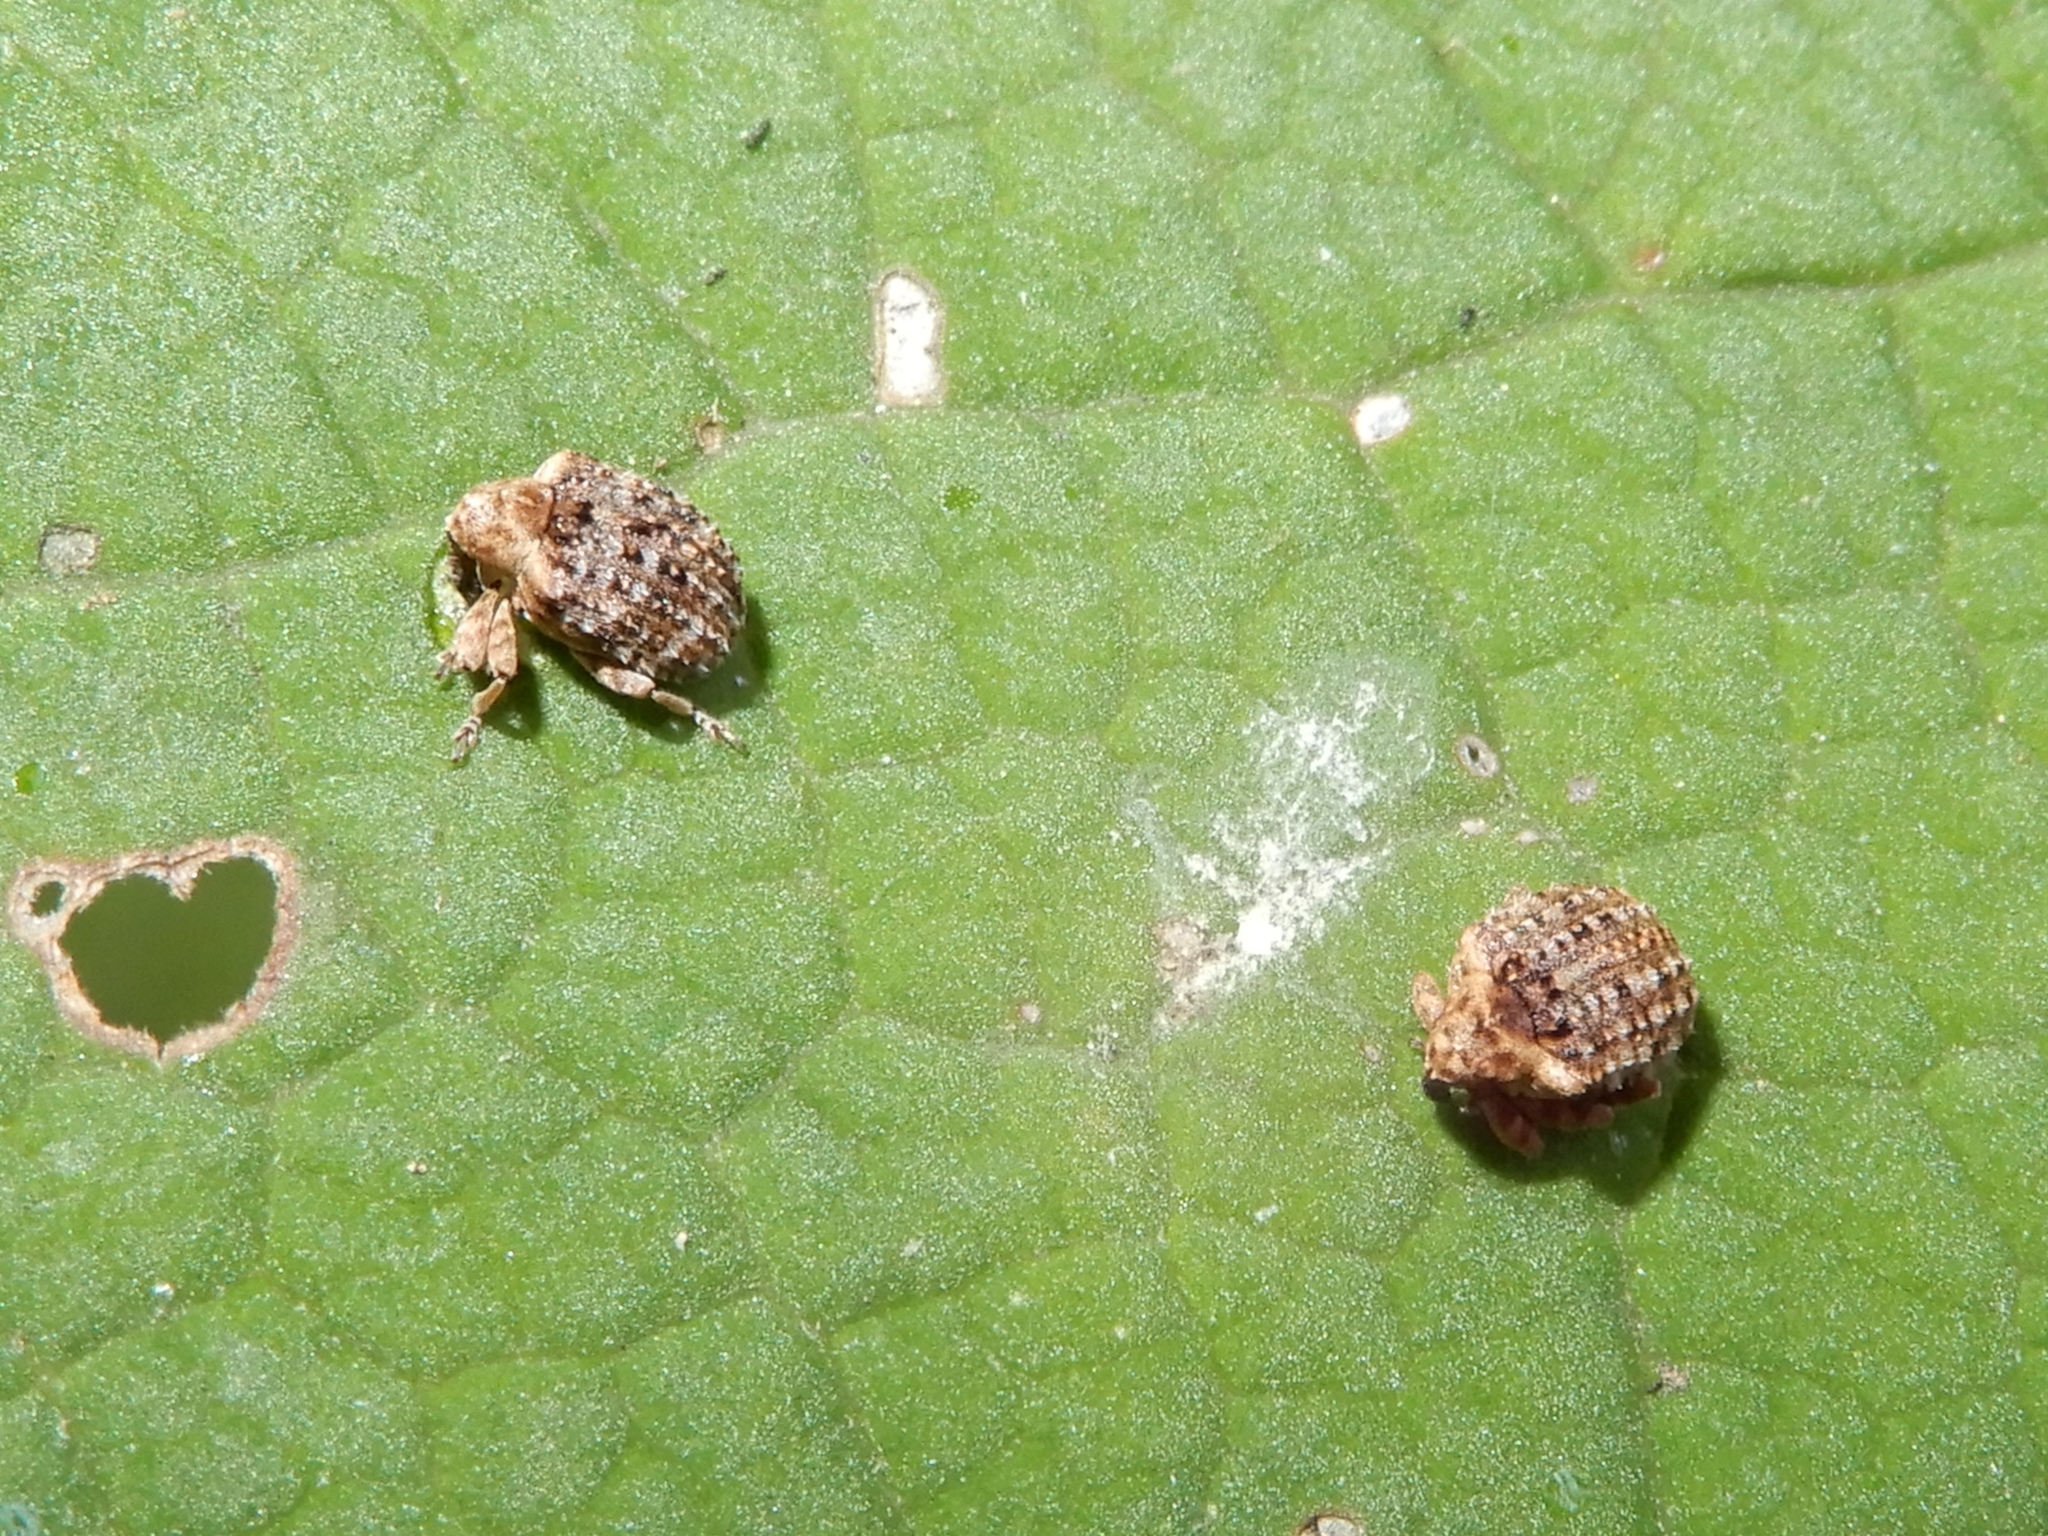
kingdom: Animalia
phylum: Arthropoda
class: Insecta
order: Coleoptera
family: Curculionidae
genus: Cleopus
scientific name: Cleopus japonicus
